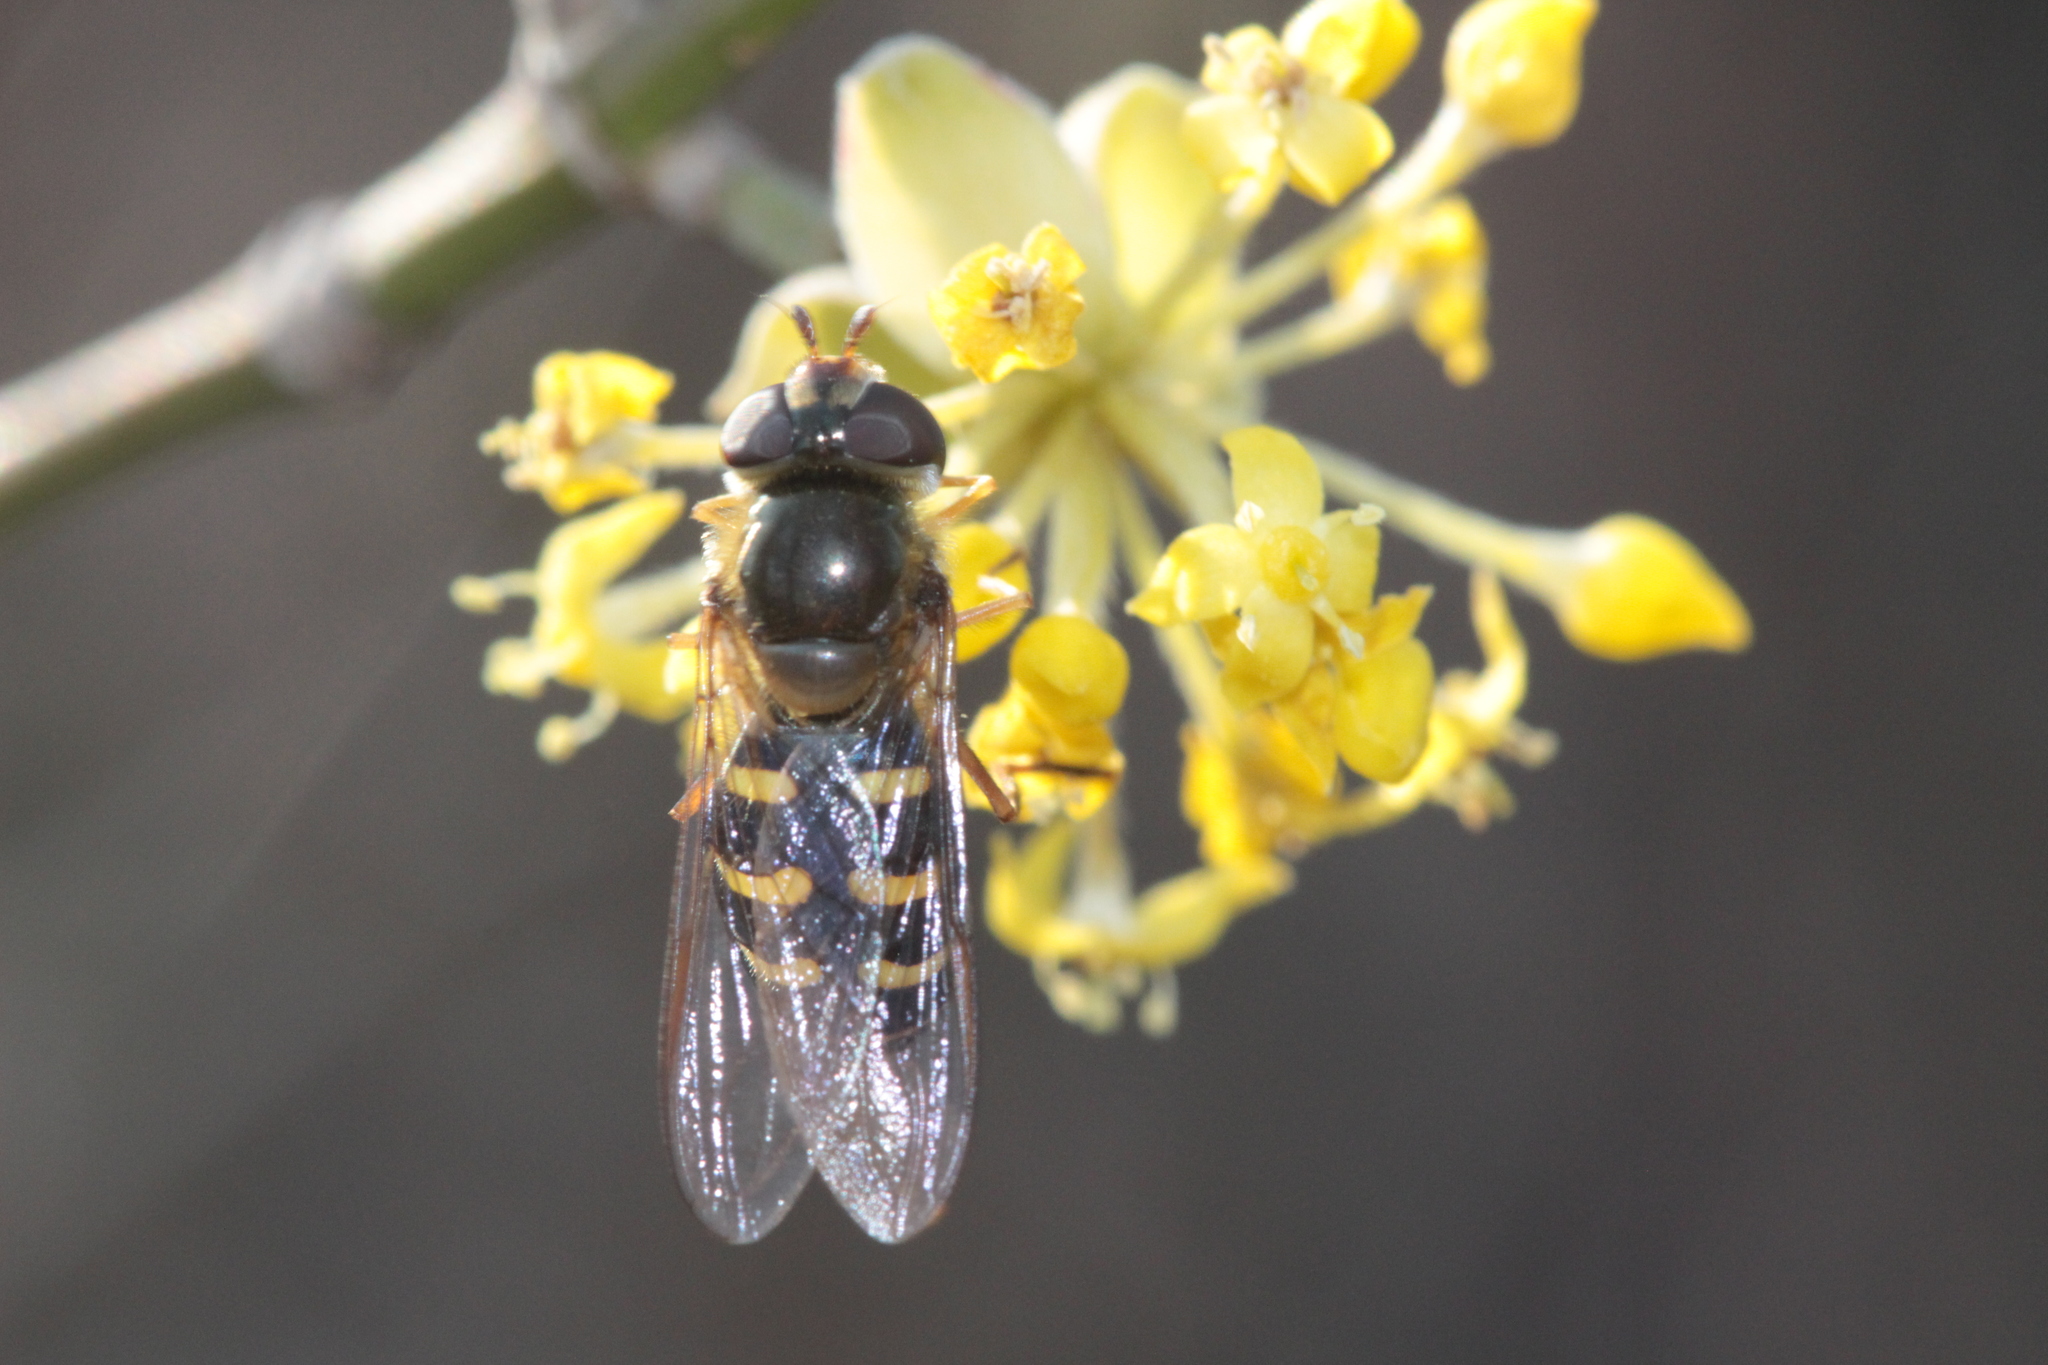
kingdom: Animalia
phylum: Arthropoda
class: Insecta
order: Diptera
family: Syrphidae
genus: Lapposyrphus
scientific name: Lapposyrphus lapponicus
